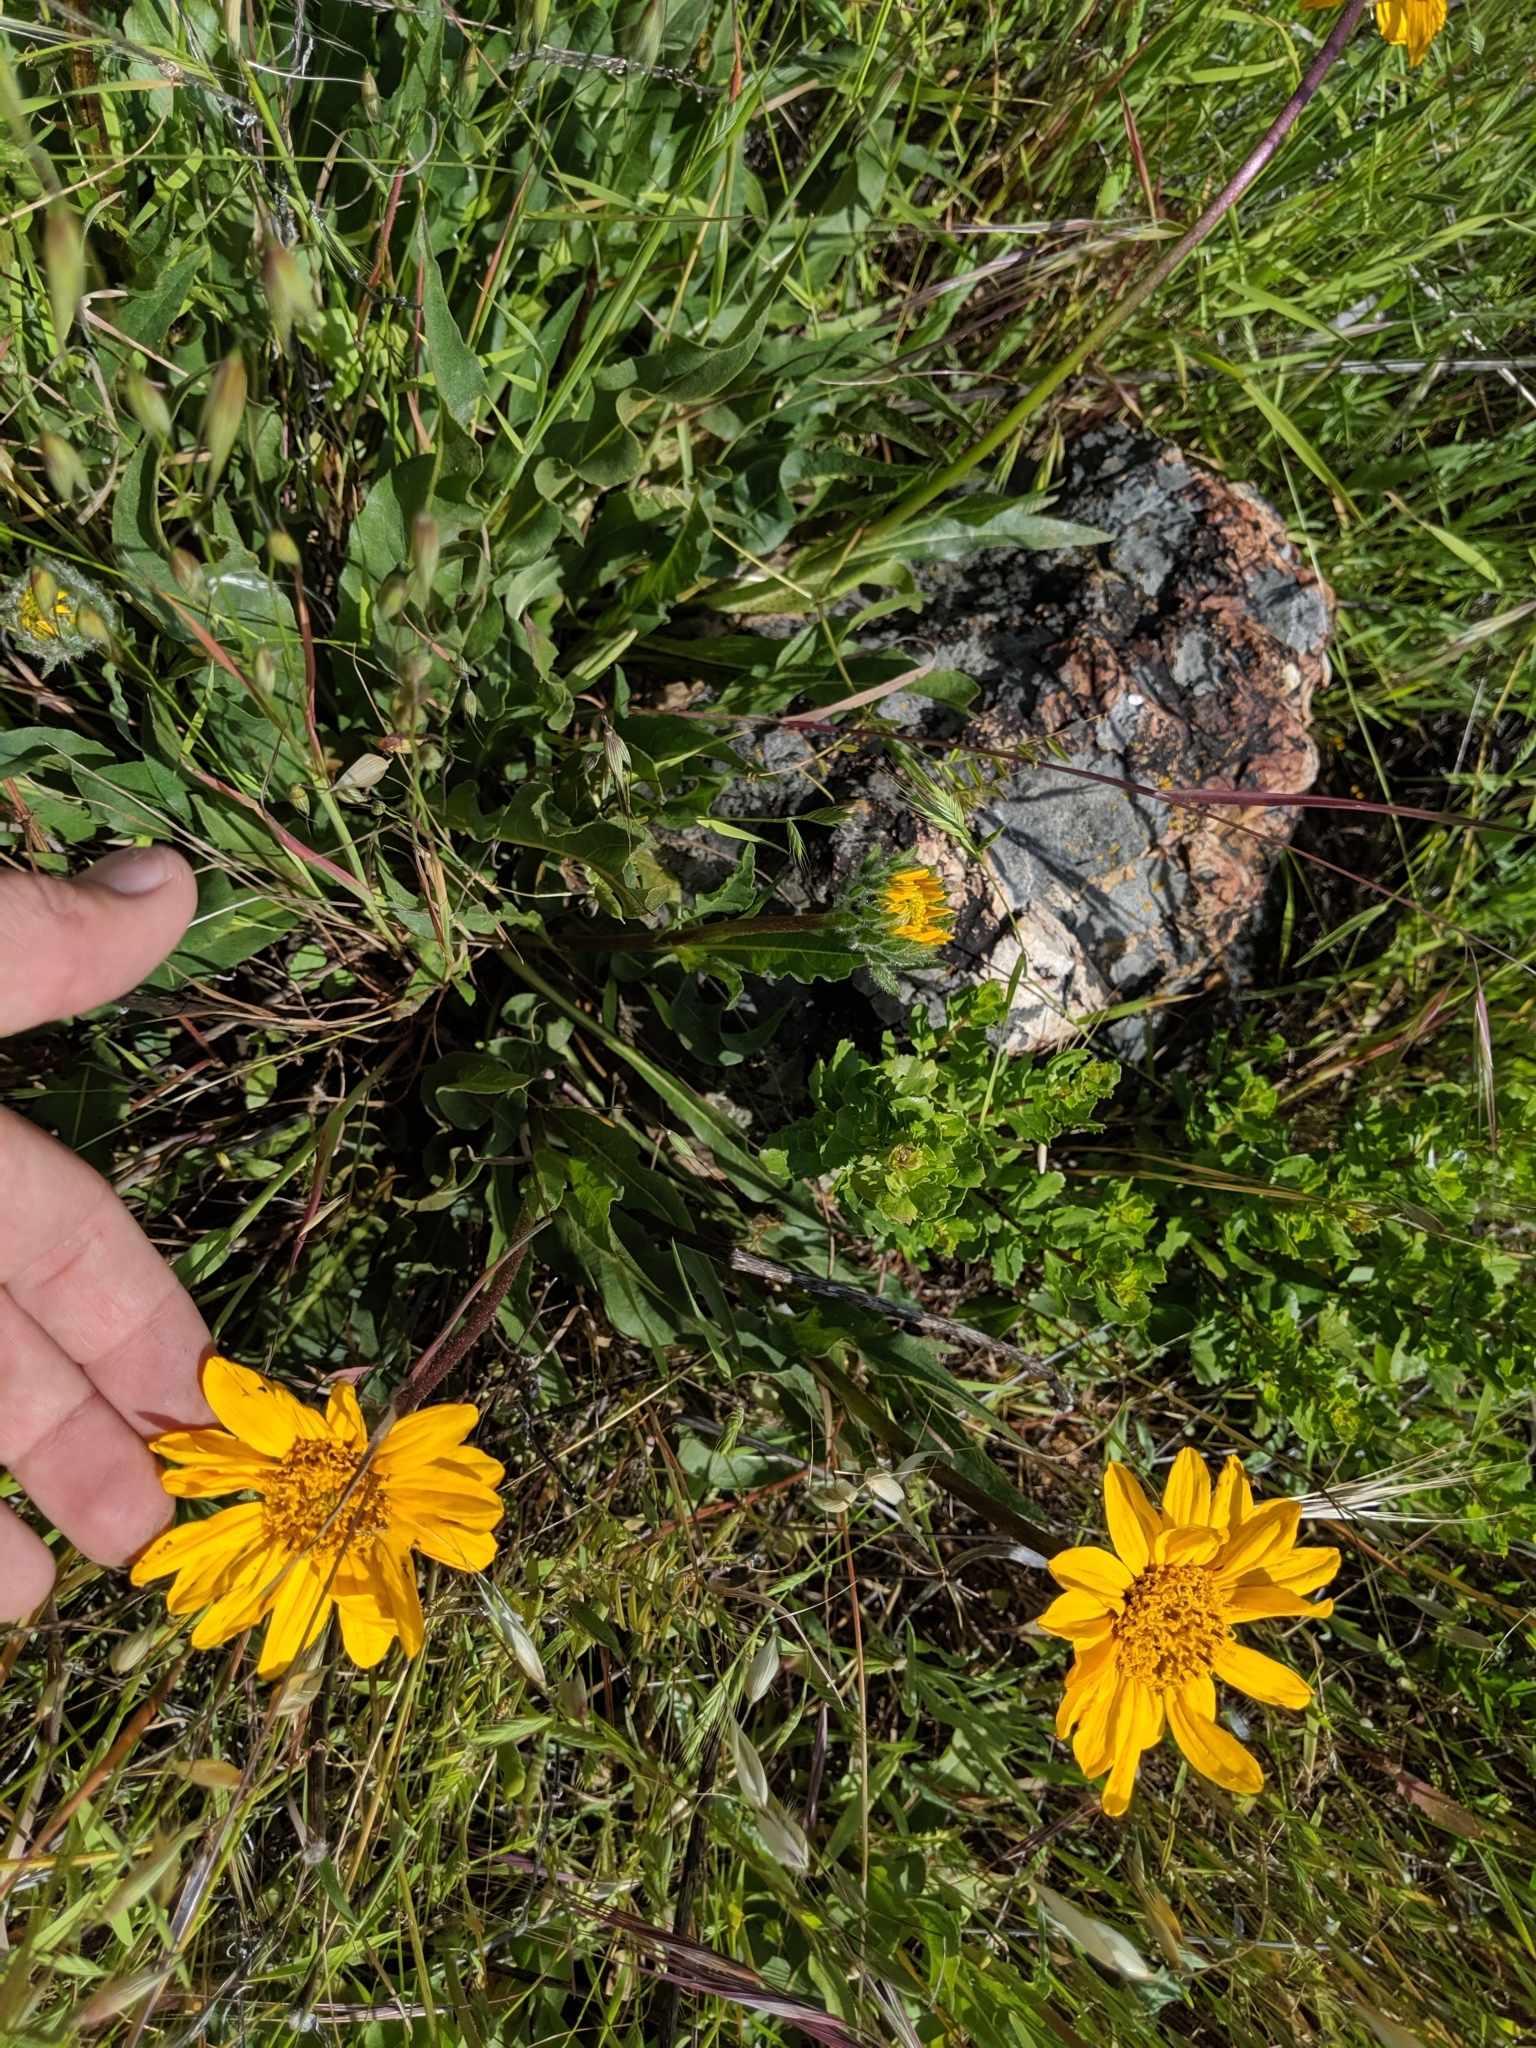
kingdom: Plantae
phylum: Tracheophyta
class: Magnoliopsida
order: Asterales
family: Asteraceae
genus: Wyethia
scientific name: Wyethia angustifolia
